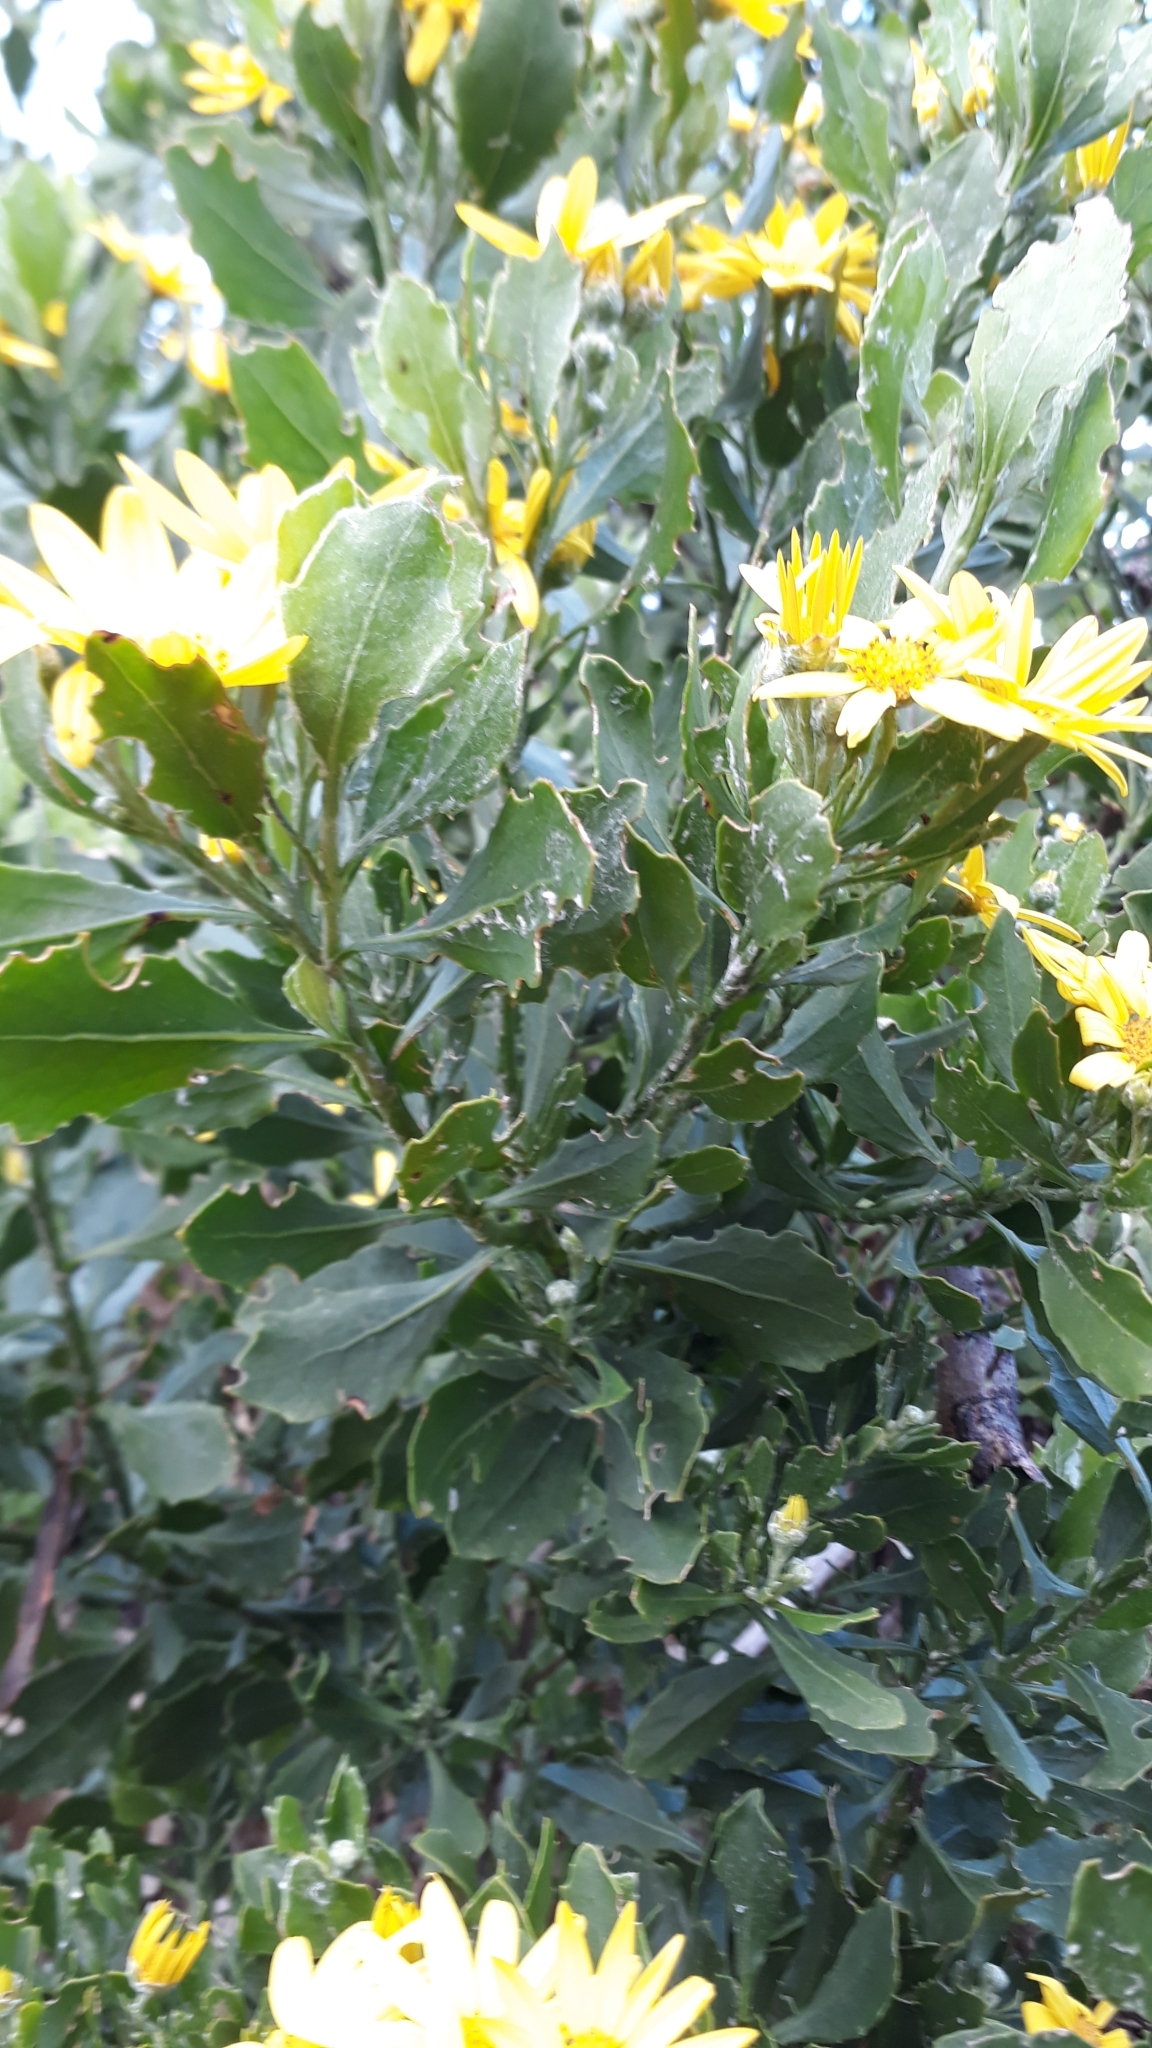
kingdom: Plantae
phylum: Tracheophyta
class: Magnoliopsida
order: Asterales
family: Asteraceae
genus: Osteospermum
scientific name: Osteospermum moniliferum
